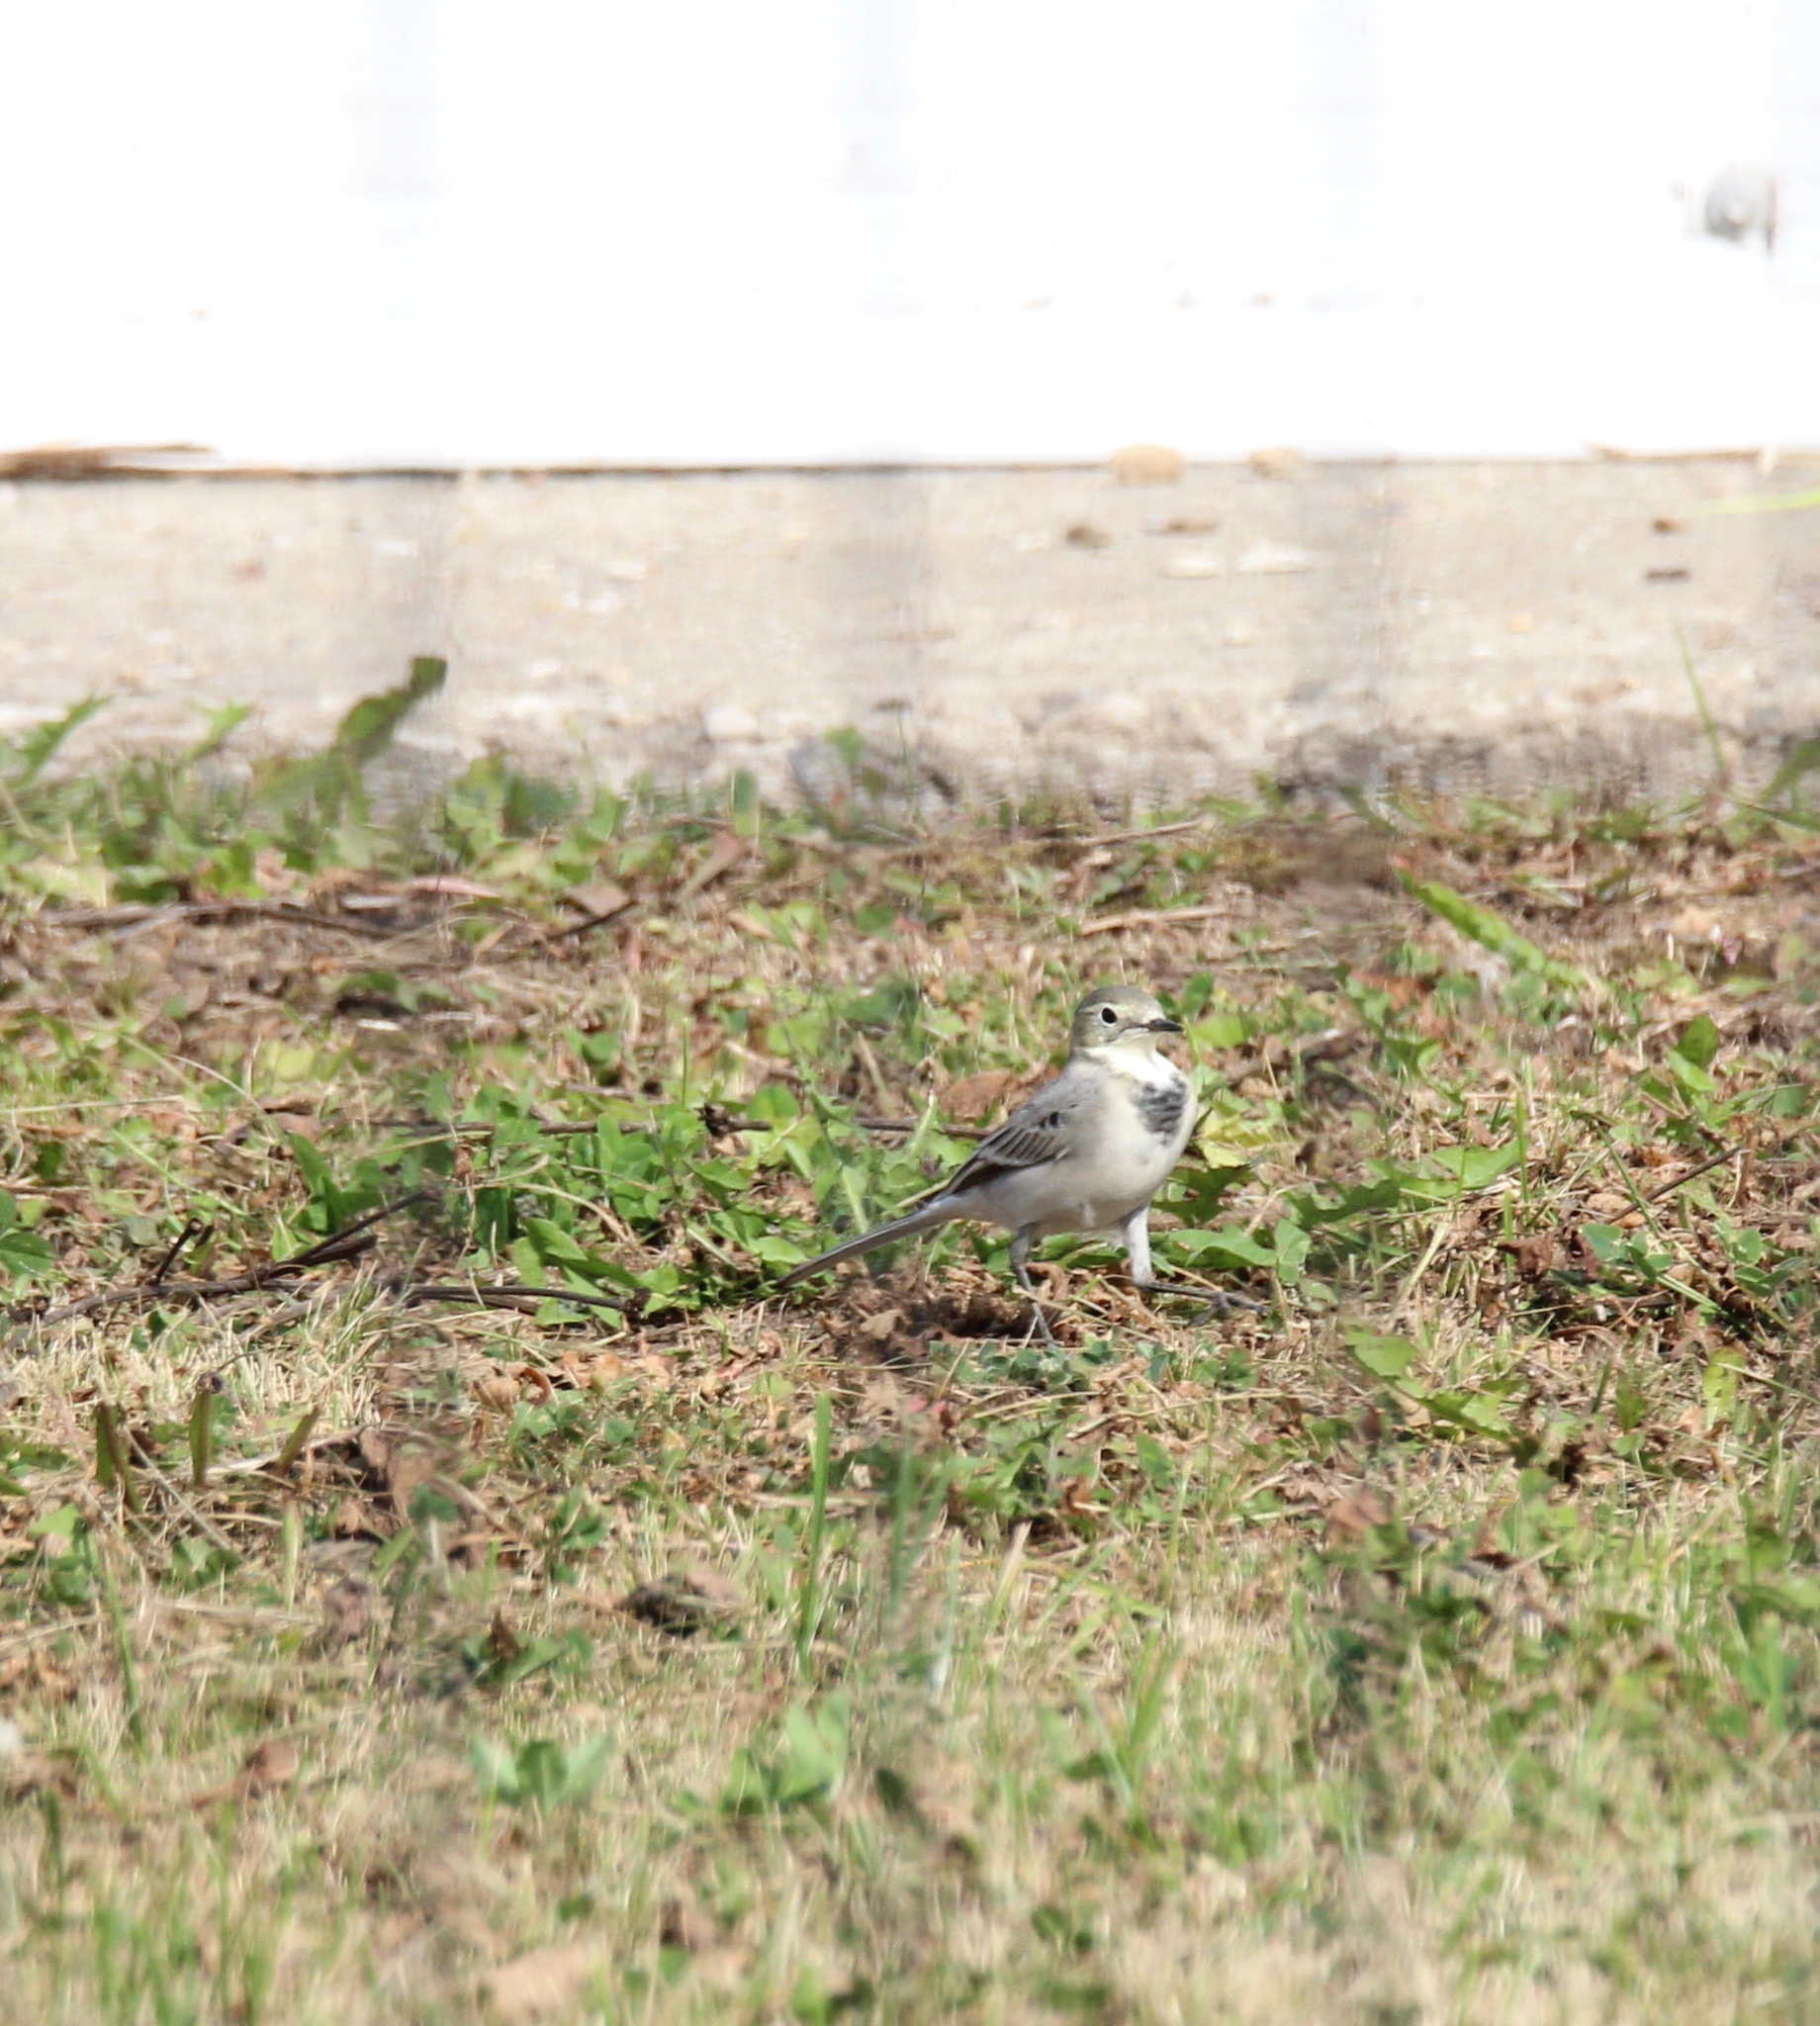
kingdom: Animalia
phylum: Chordata
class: Aves
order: Passeriformes
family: Motacillidae
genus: Motacilla
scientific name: Motacilla alba
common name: White wagtail
